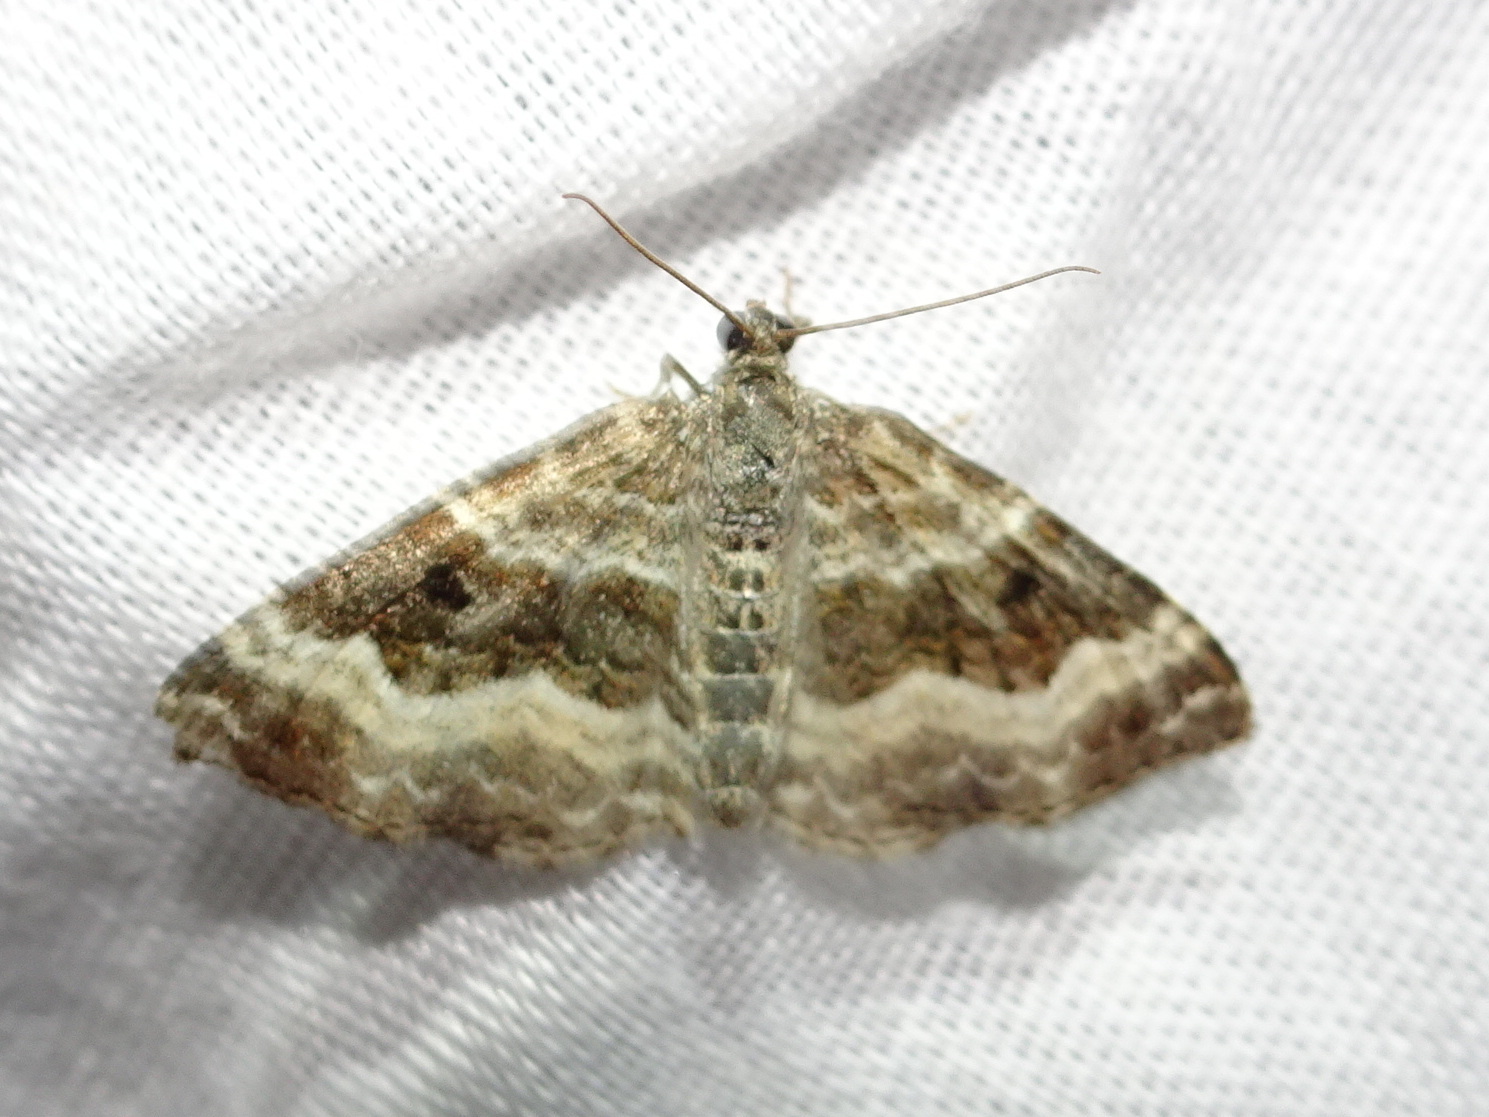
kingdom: Animalia
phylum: Arthropoda
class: Insecta
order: Lepidoptera
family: Geometridae
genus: Epirrhoe
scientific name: Epirrhoe alternata
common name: Common carpet
